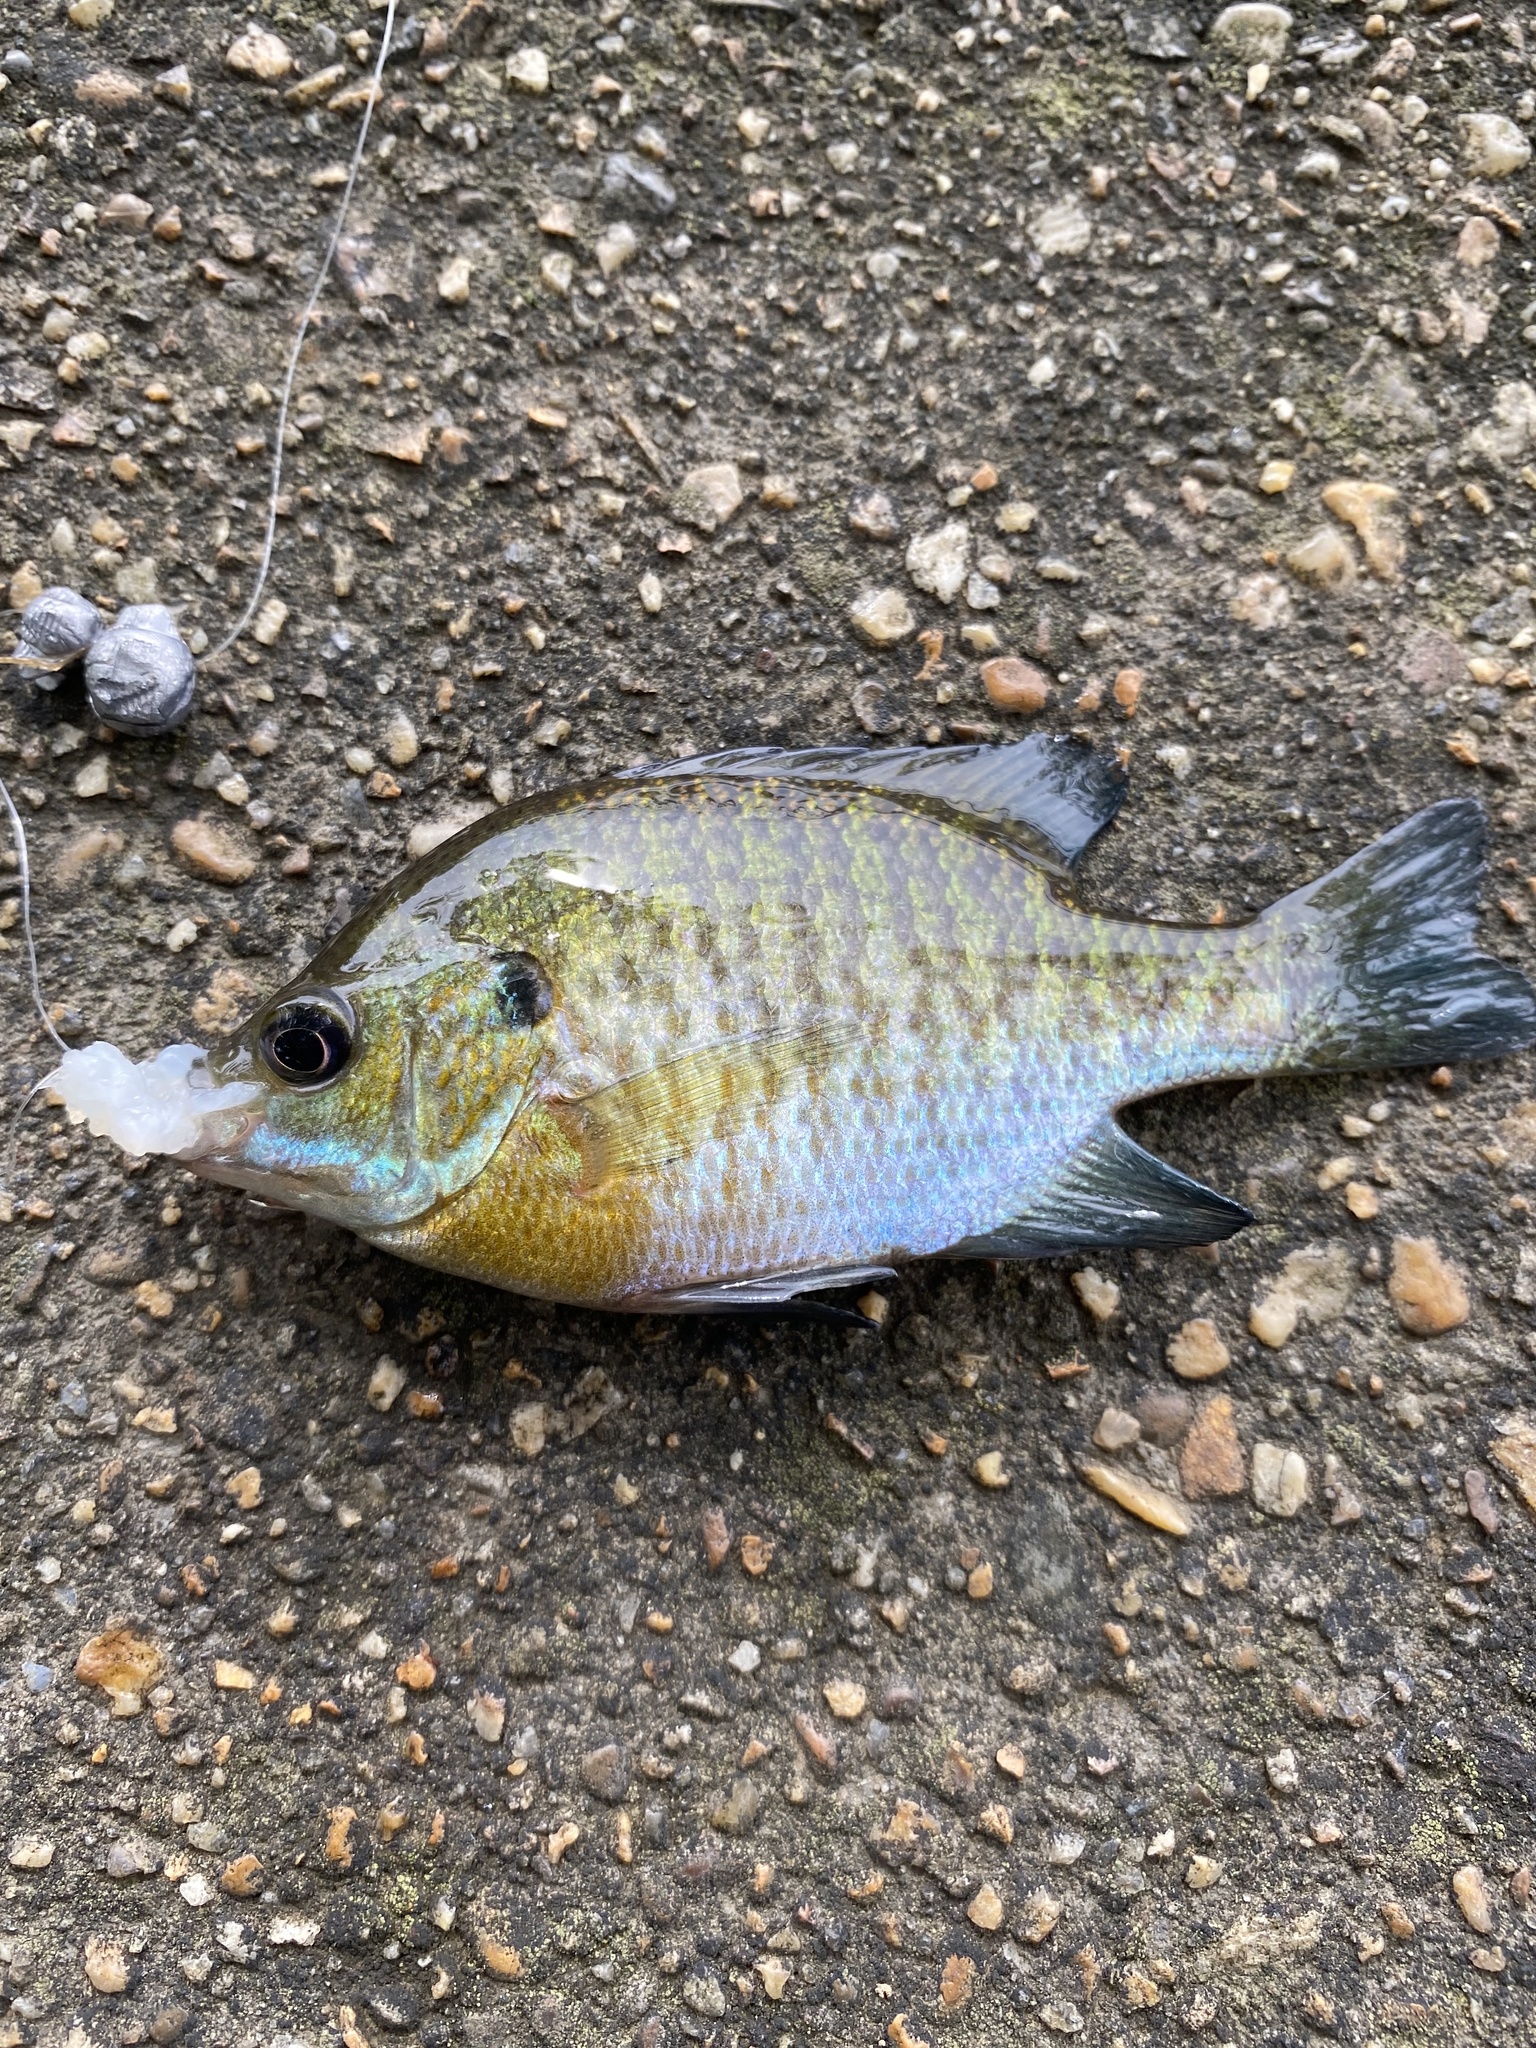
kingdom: Animalia
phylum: Chordata
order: Perciformes
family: Centrarchidae
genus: Lepomis
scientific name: Lepomis macrochirus
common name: Bluegill
